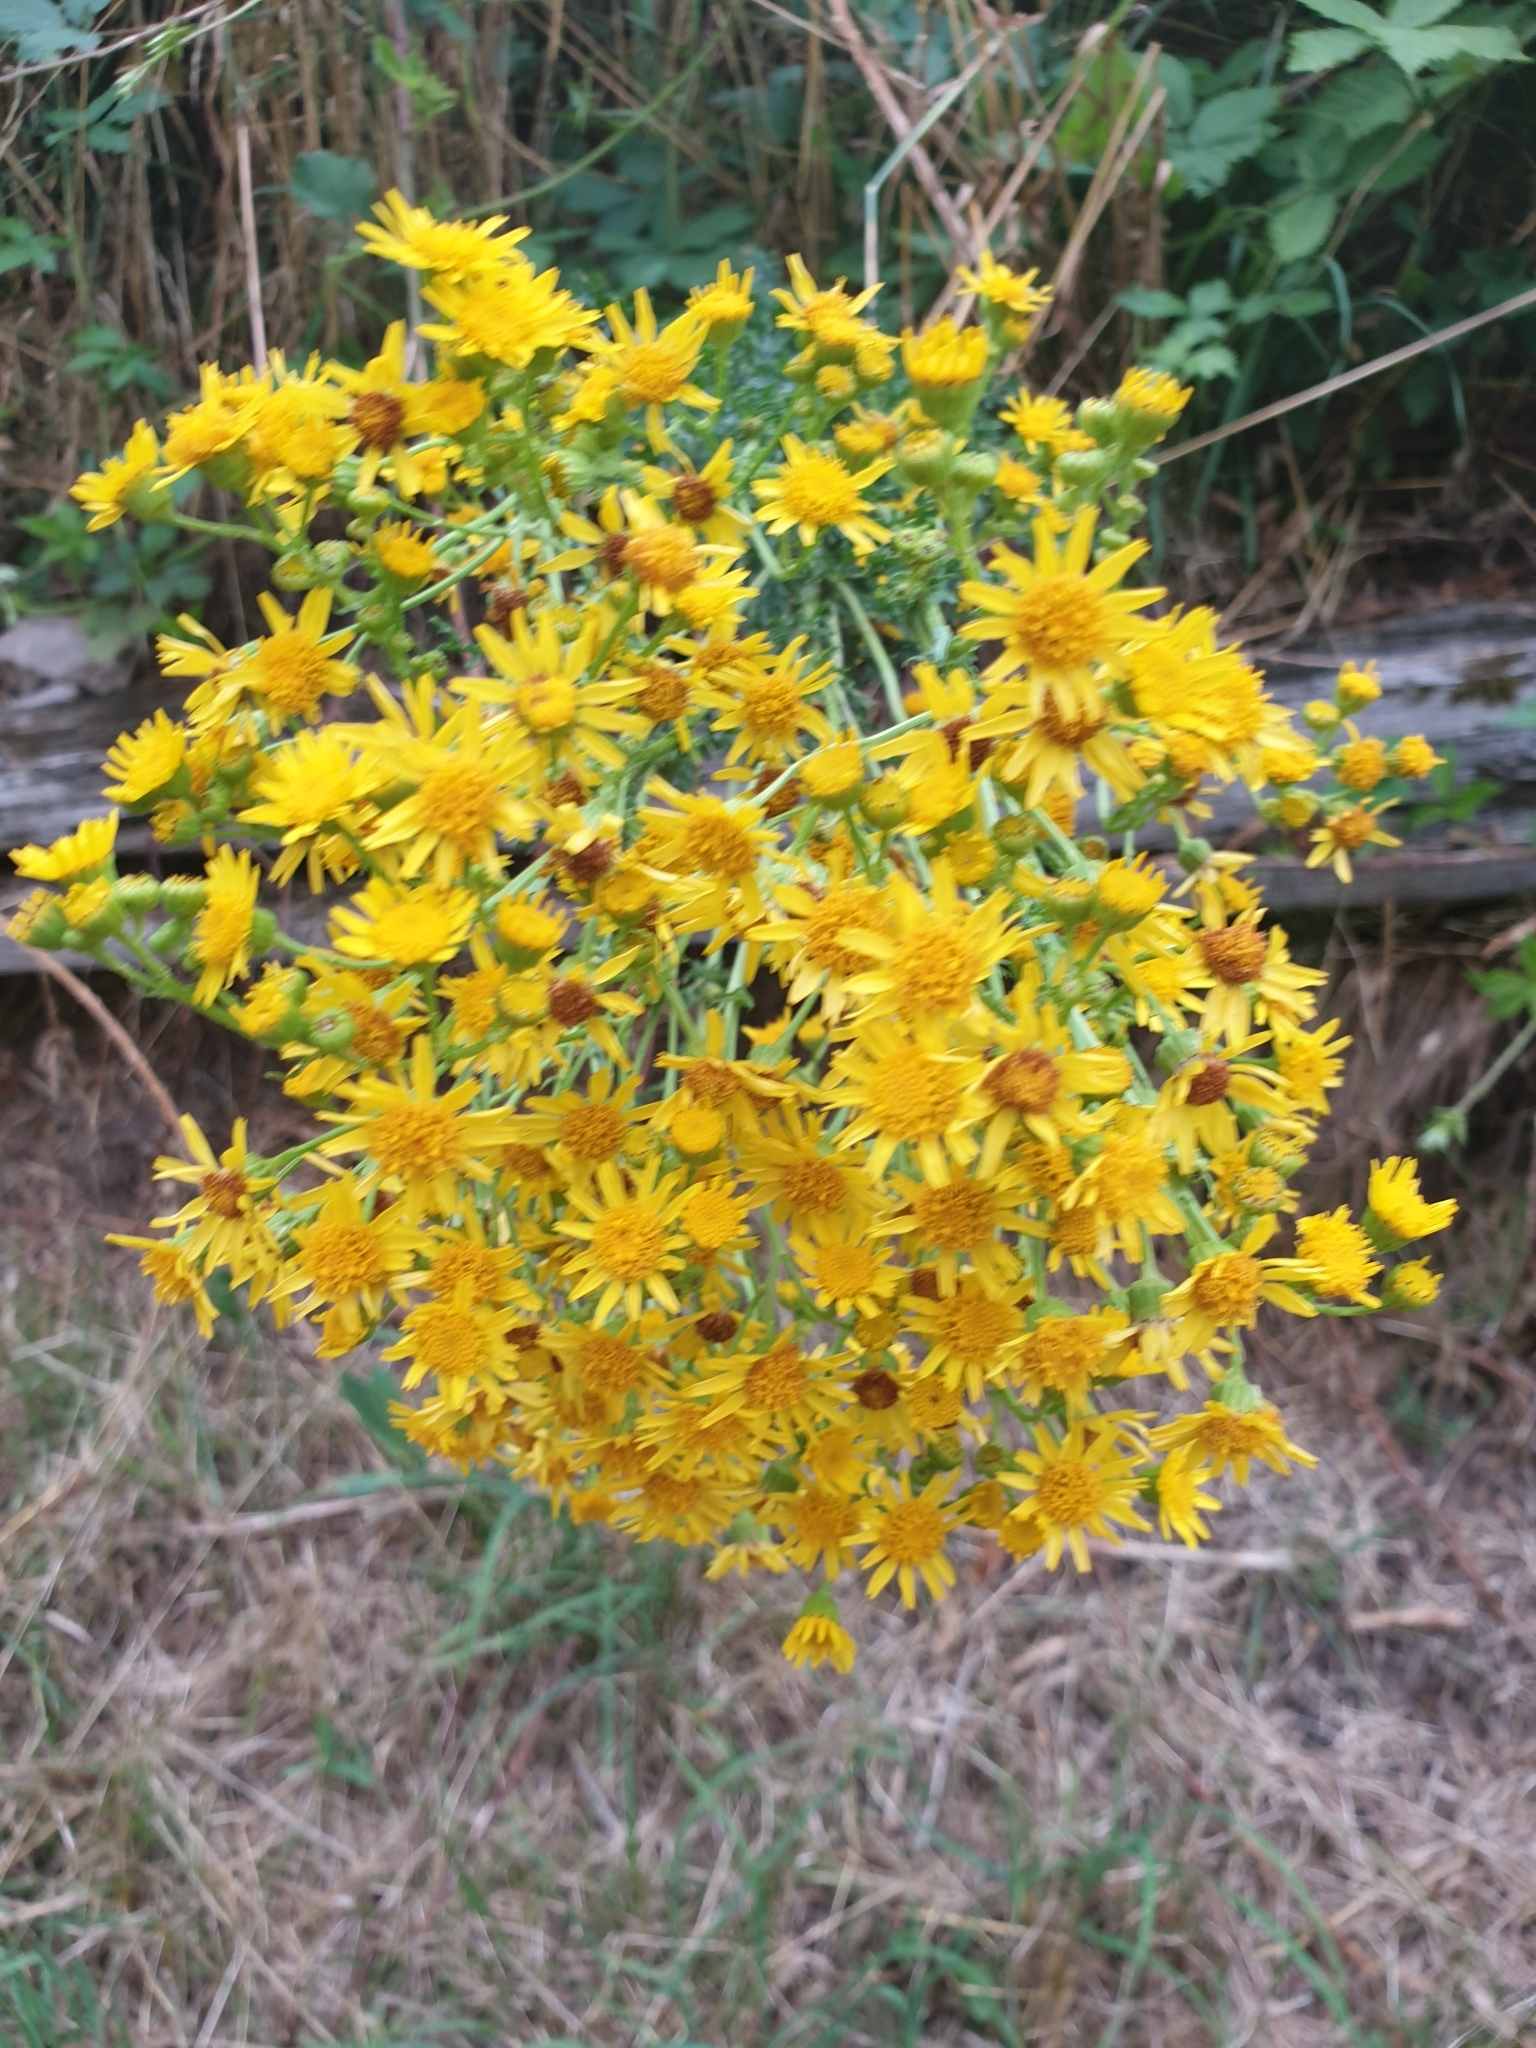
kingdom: Plantae
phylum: Tracheophyta
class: Magnoliopsida
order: Asterales
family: Asteraceae
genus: Jacobaea
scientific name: Jacobaea vulgaris
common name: Stinking willie
